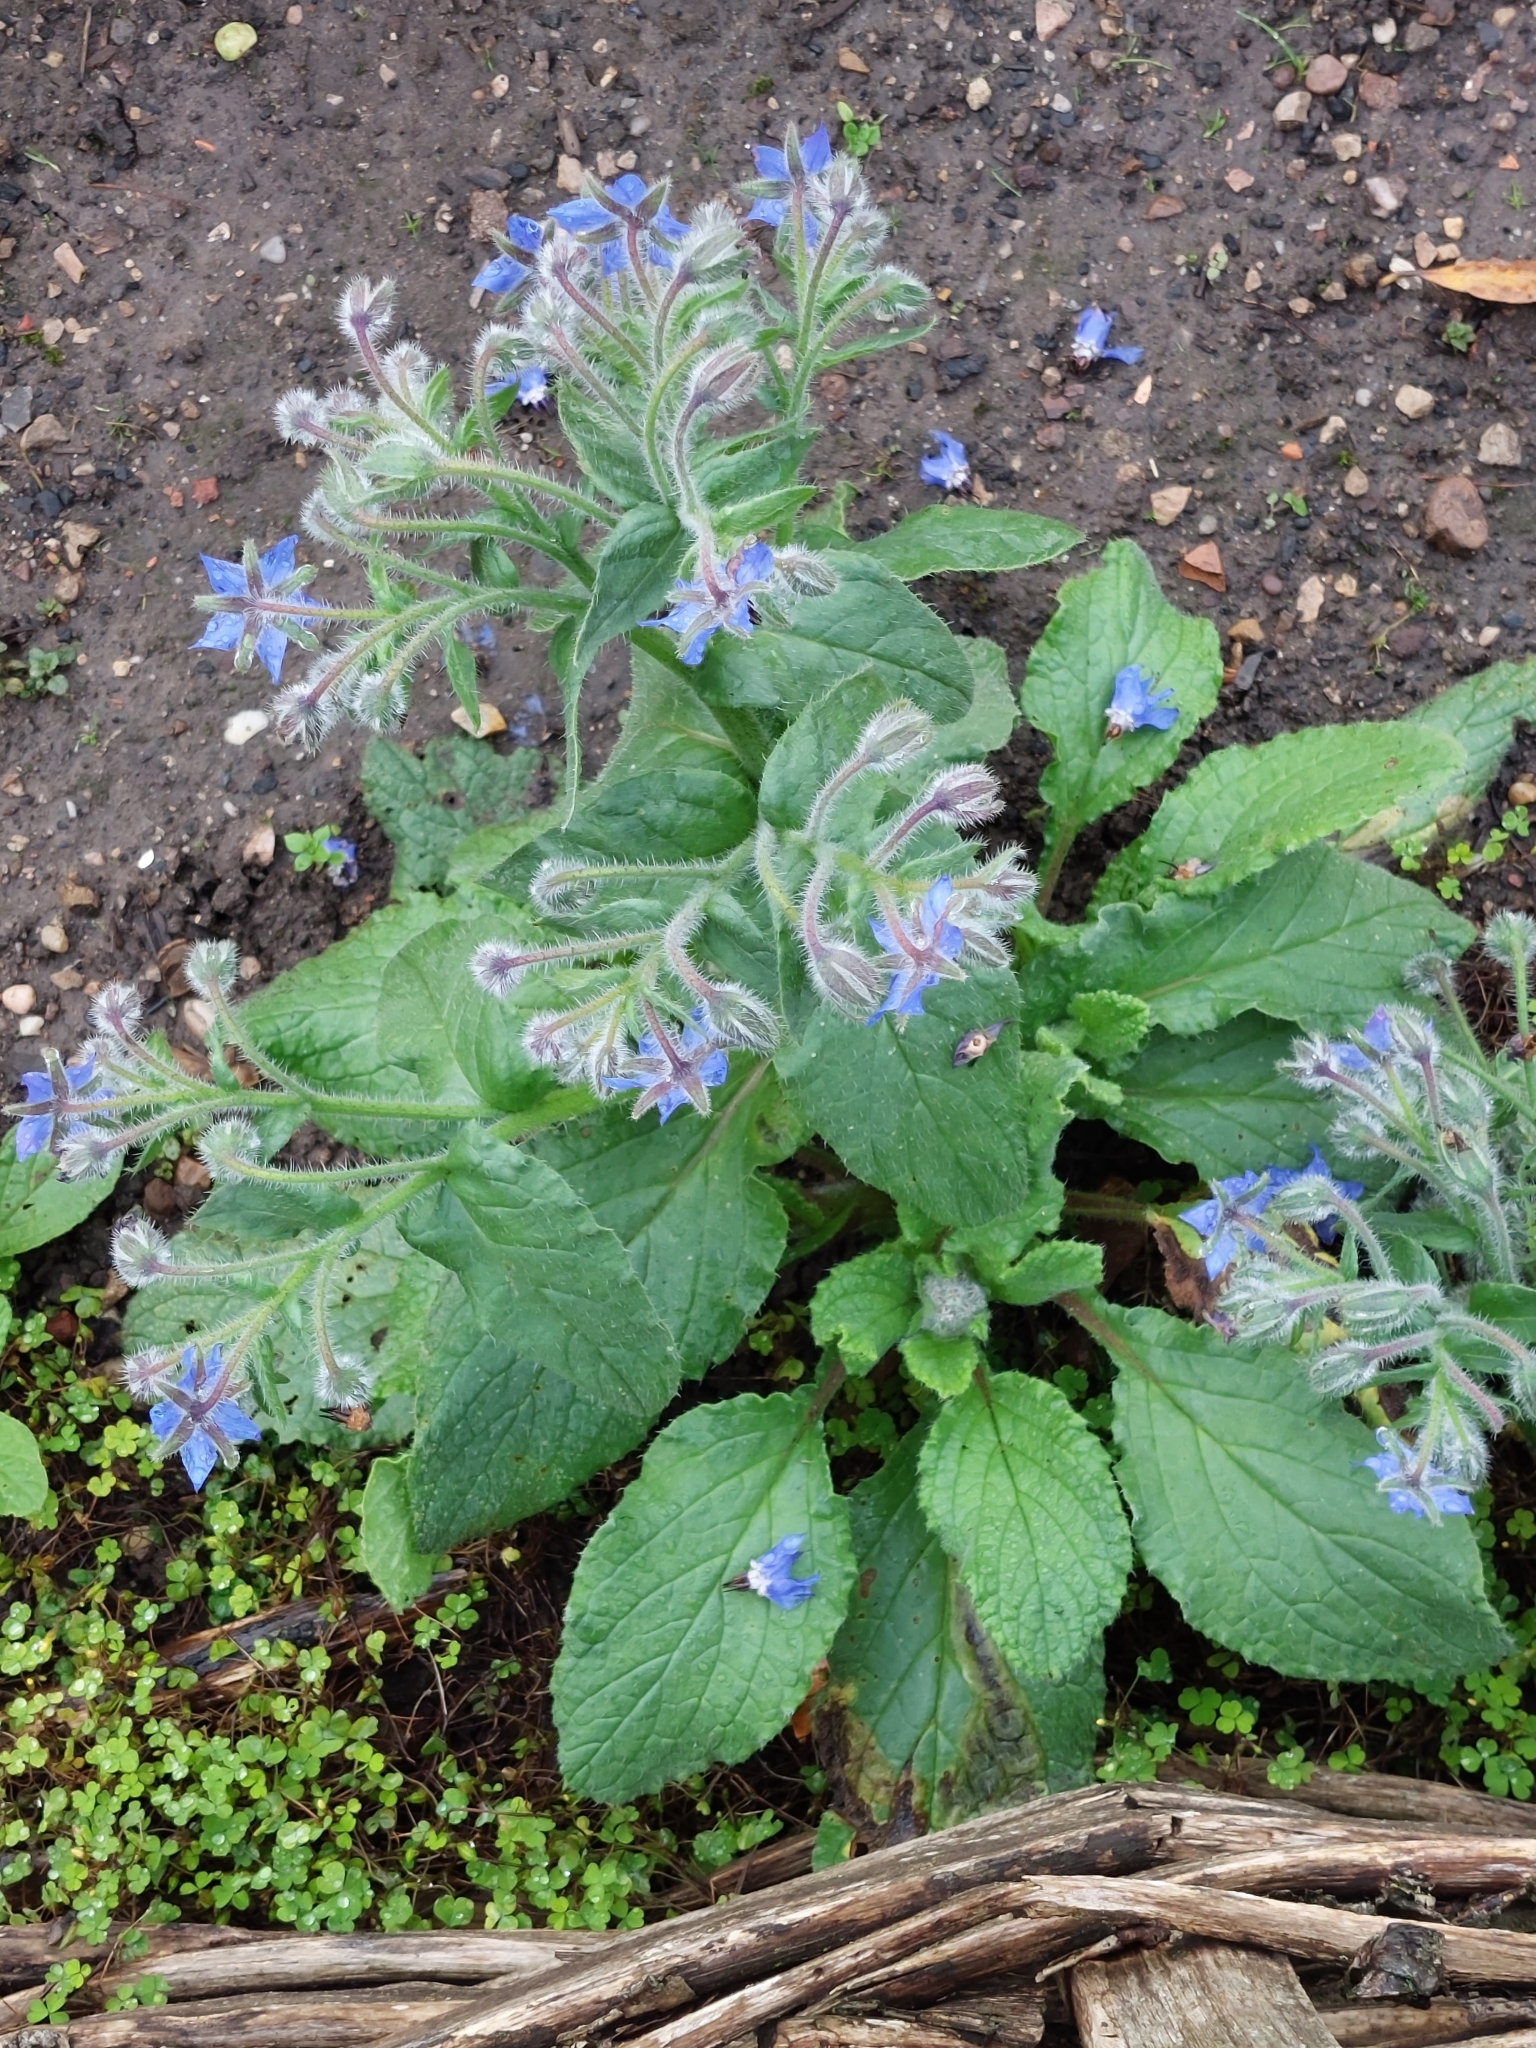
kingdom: Plantae
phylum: Tracheophyta
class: Magnoliopsida
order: Boraginales
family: Boraginaceae
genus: Borago
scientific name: Borago officinalis
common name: Borage
